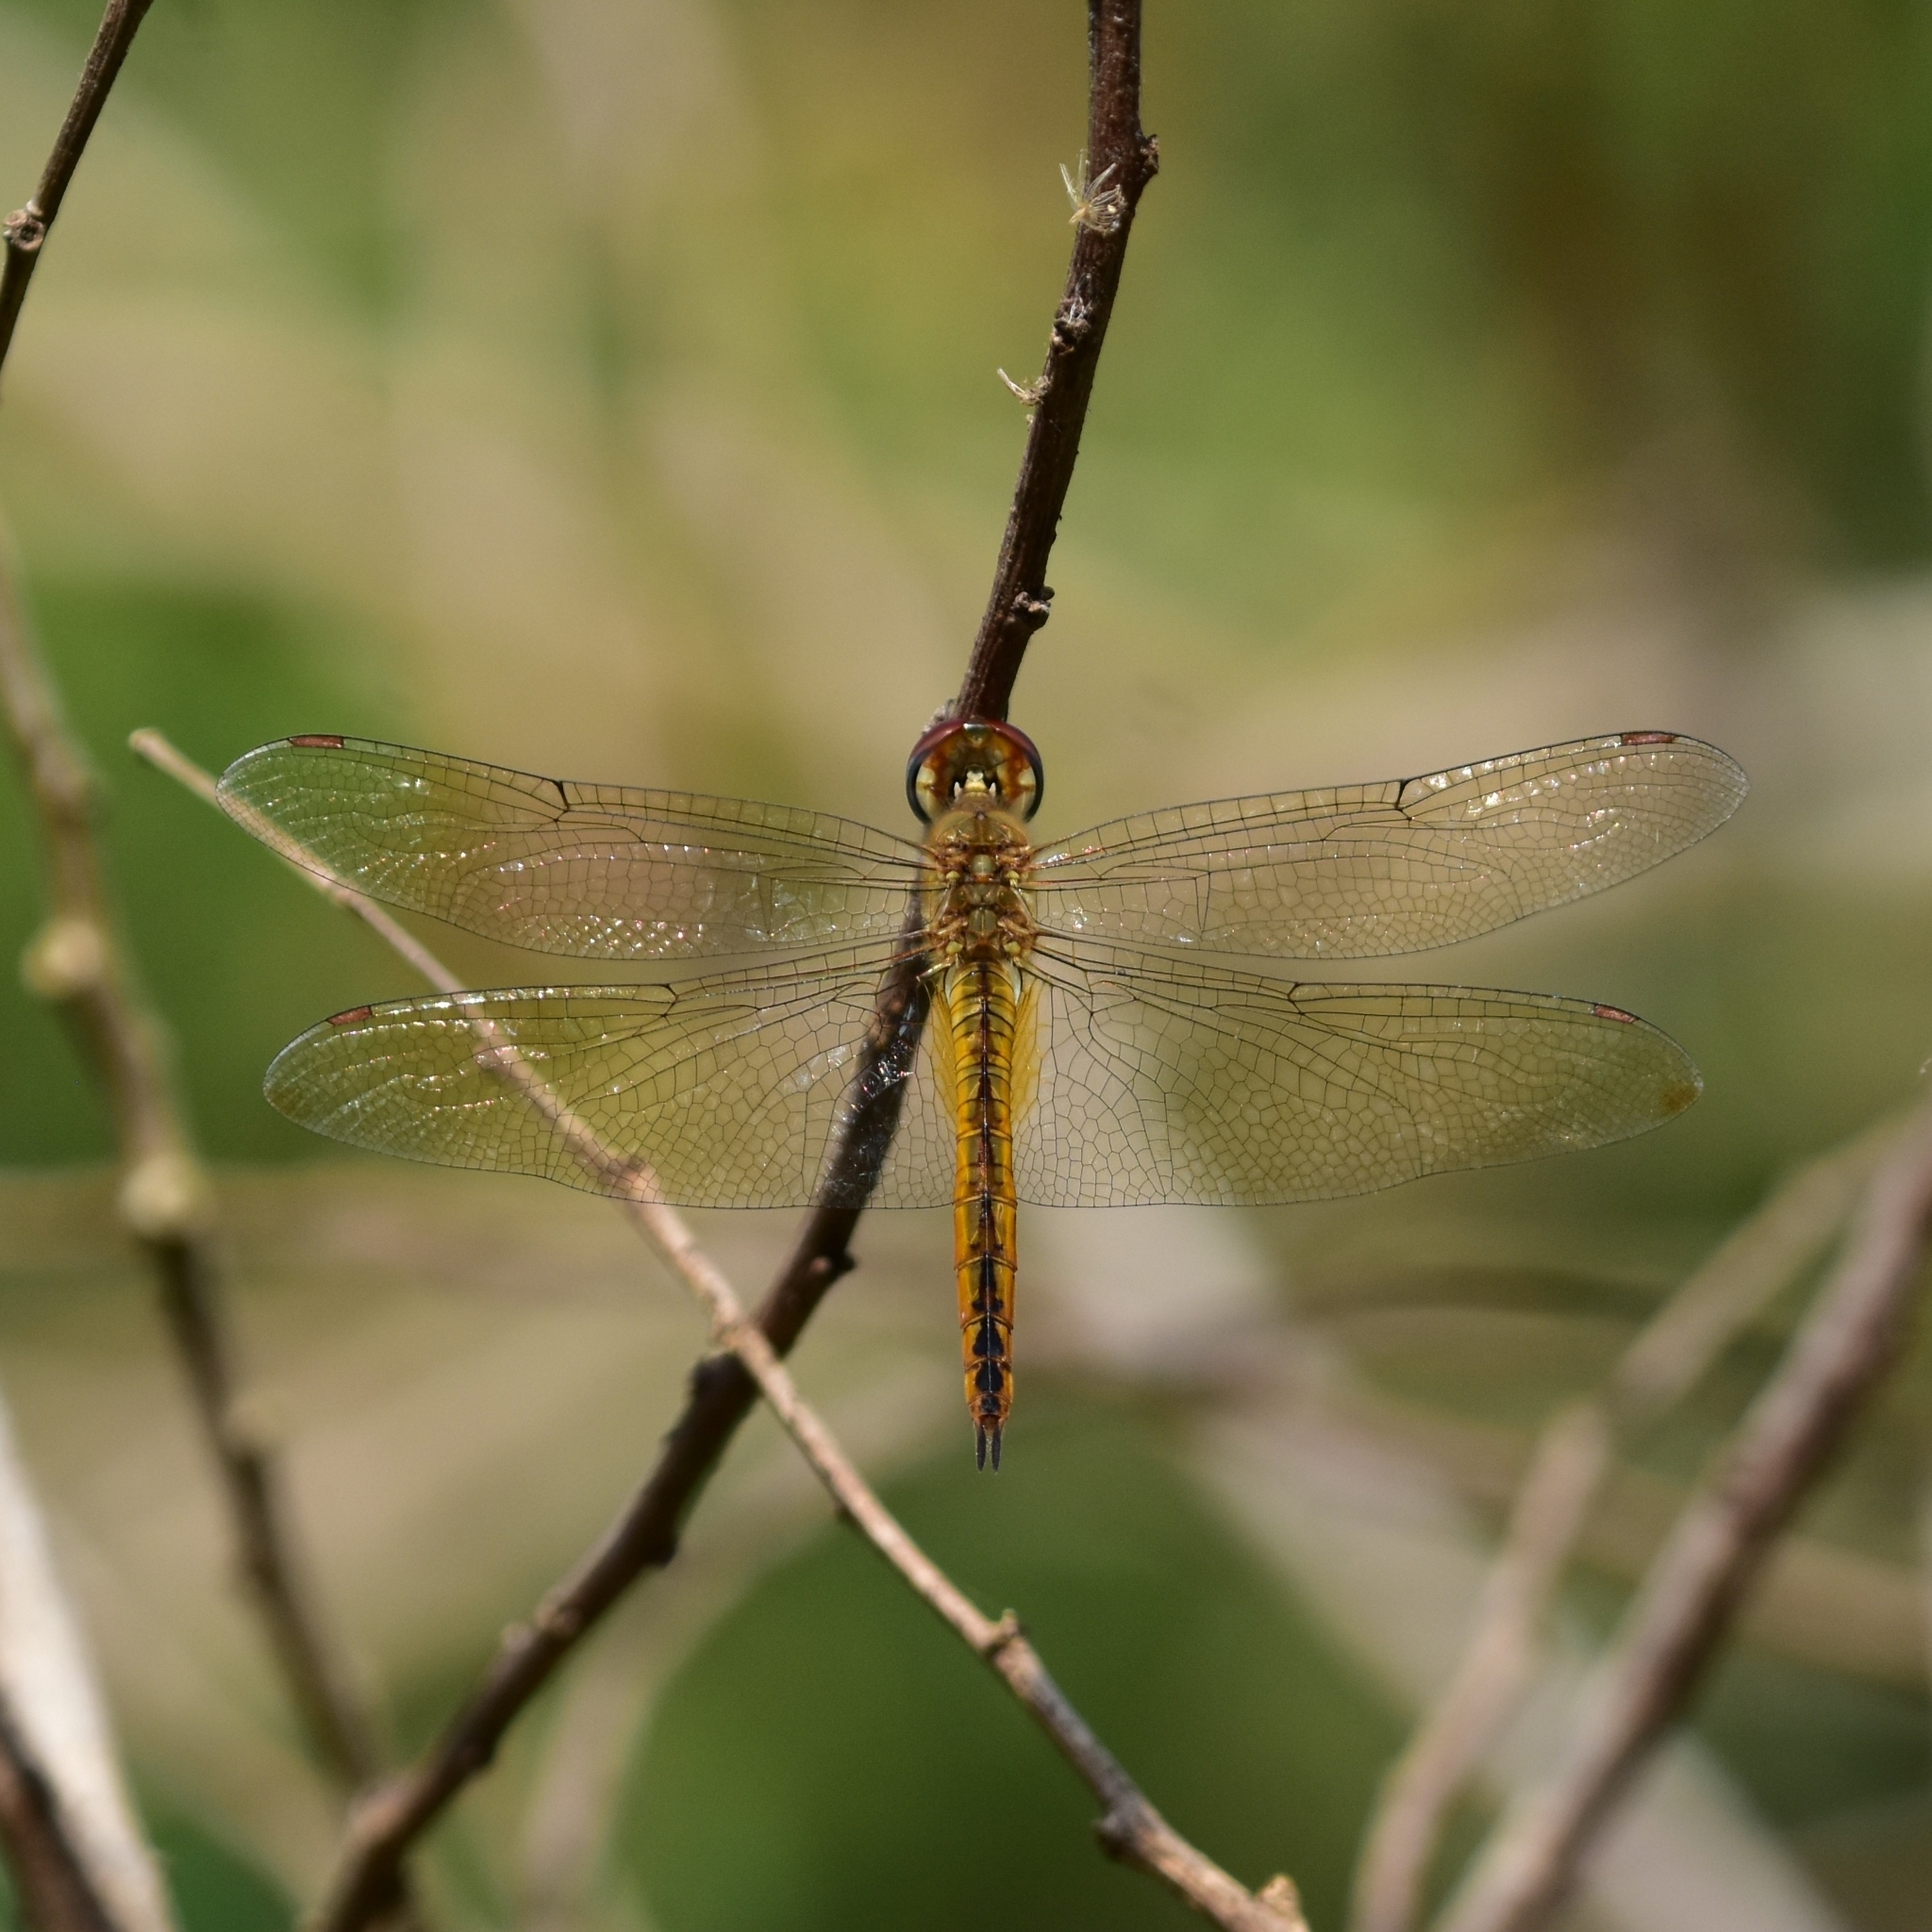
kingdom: Animalia
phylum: Arthropoda
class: Insecta
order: Odonata
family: Libellulidae
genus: Pantala
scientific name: Pantala flavescens
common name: Wandering glider
